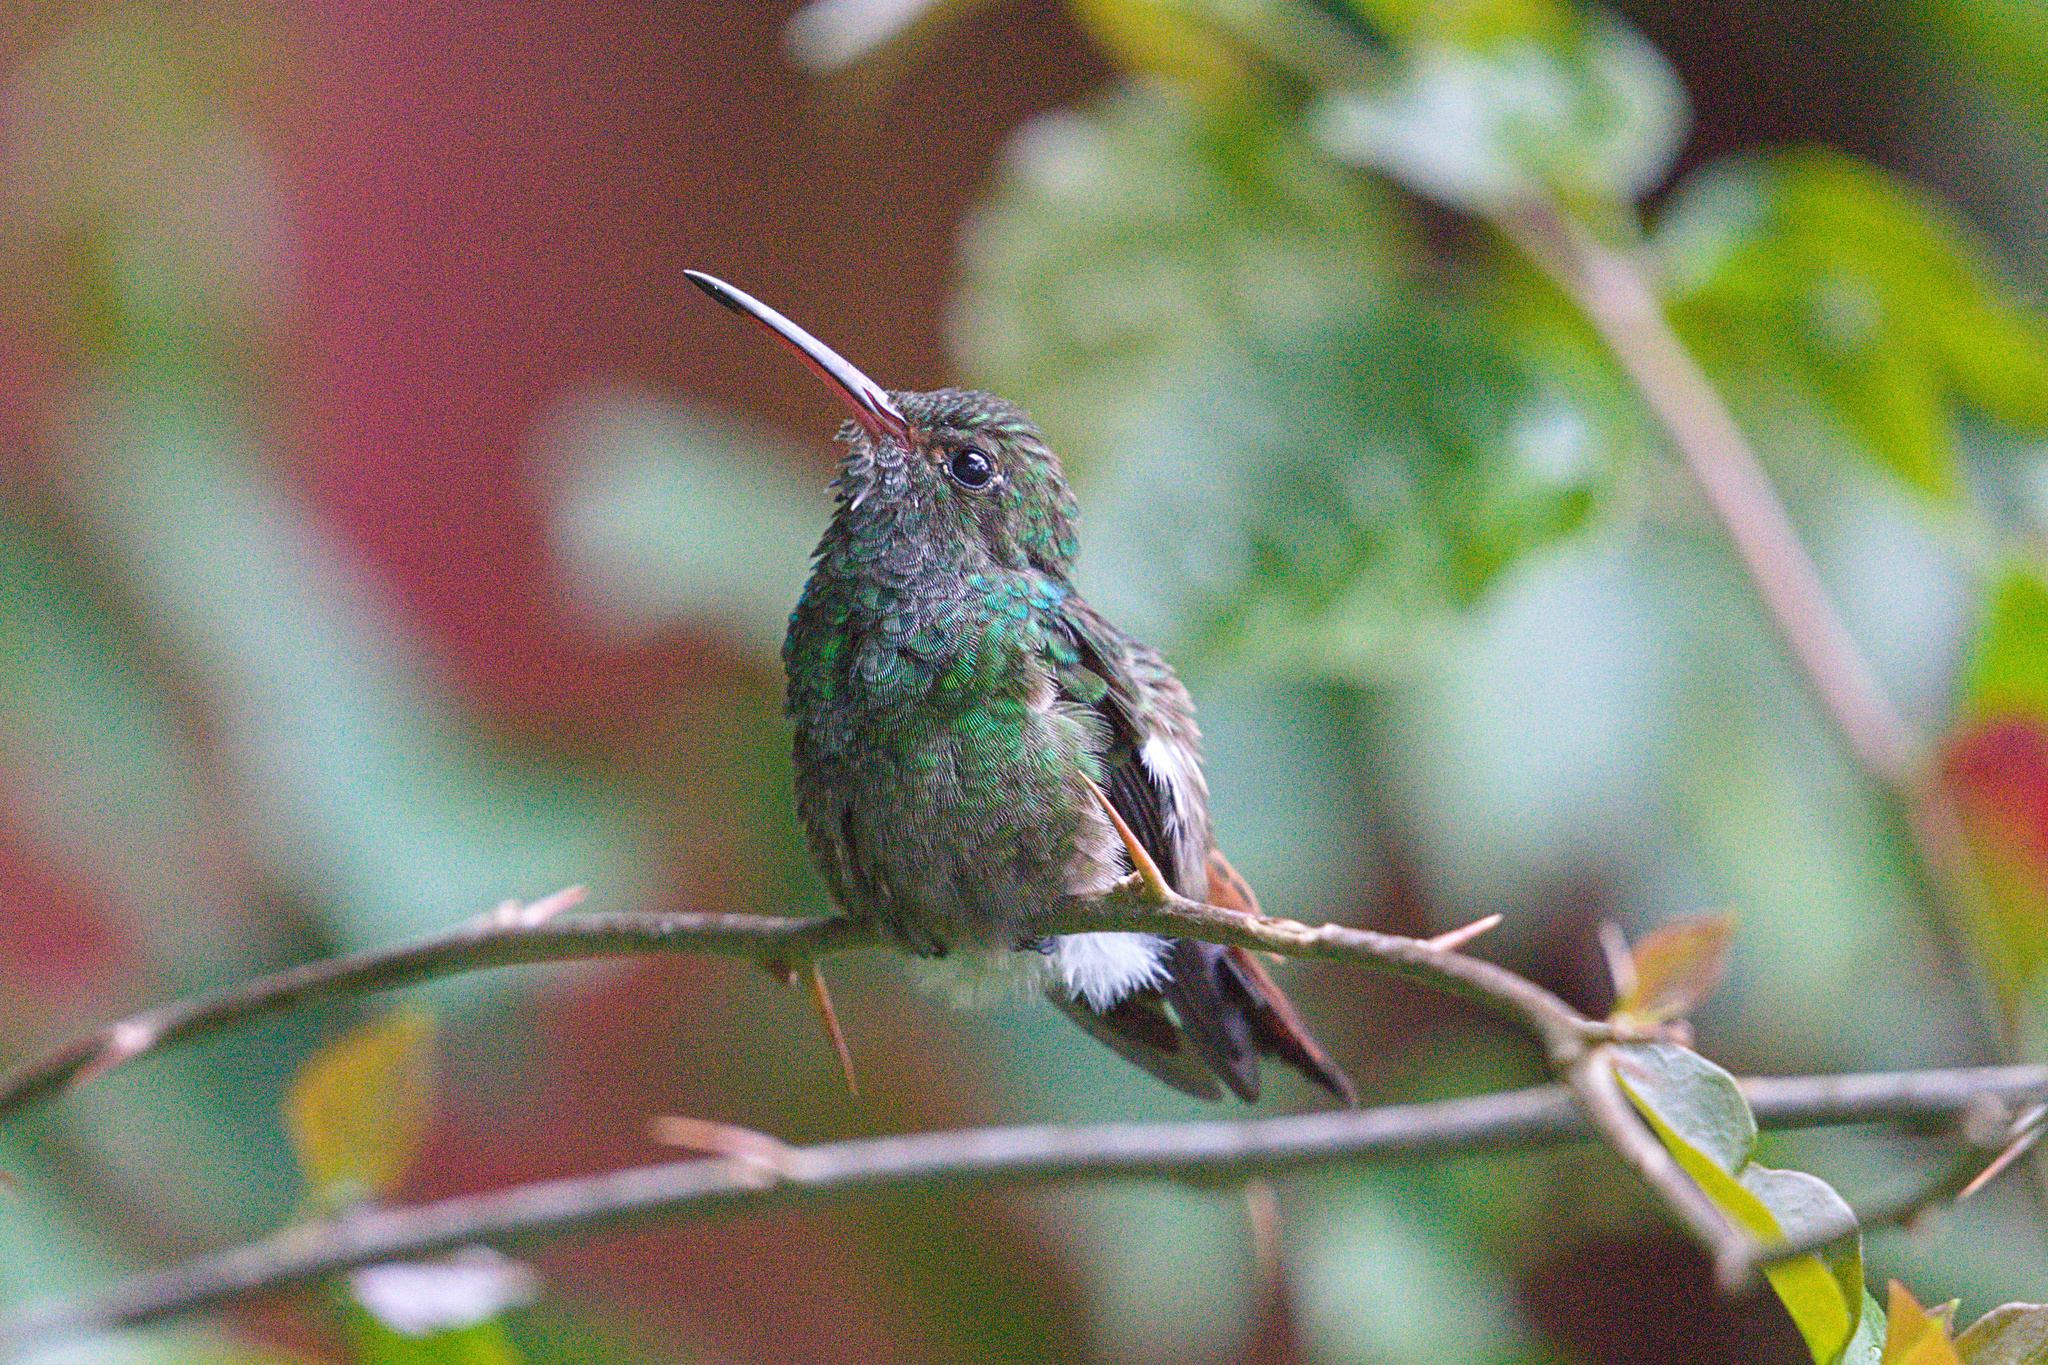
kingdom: Animalia
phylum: Chordata
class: Aves
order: Apodiformes
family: Trochilidae
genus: Amazilia
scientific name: Amazilia tzacatl
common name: Rufous-tailed hummingbird
